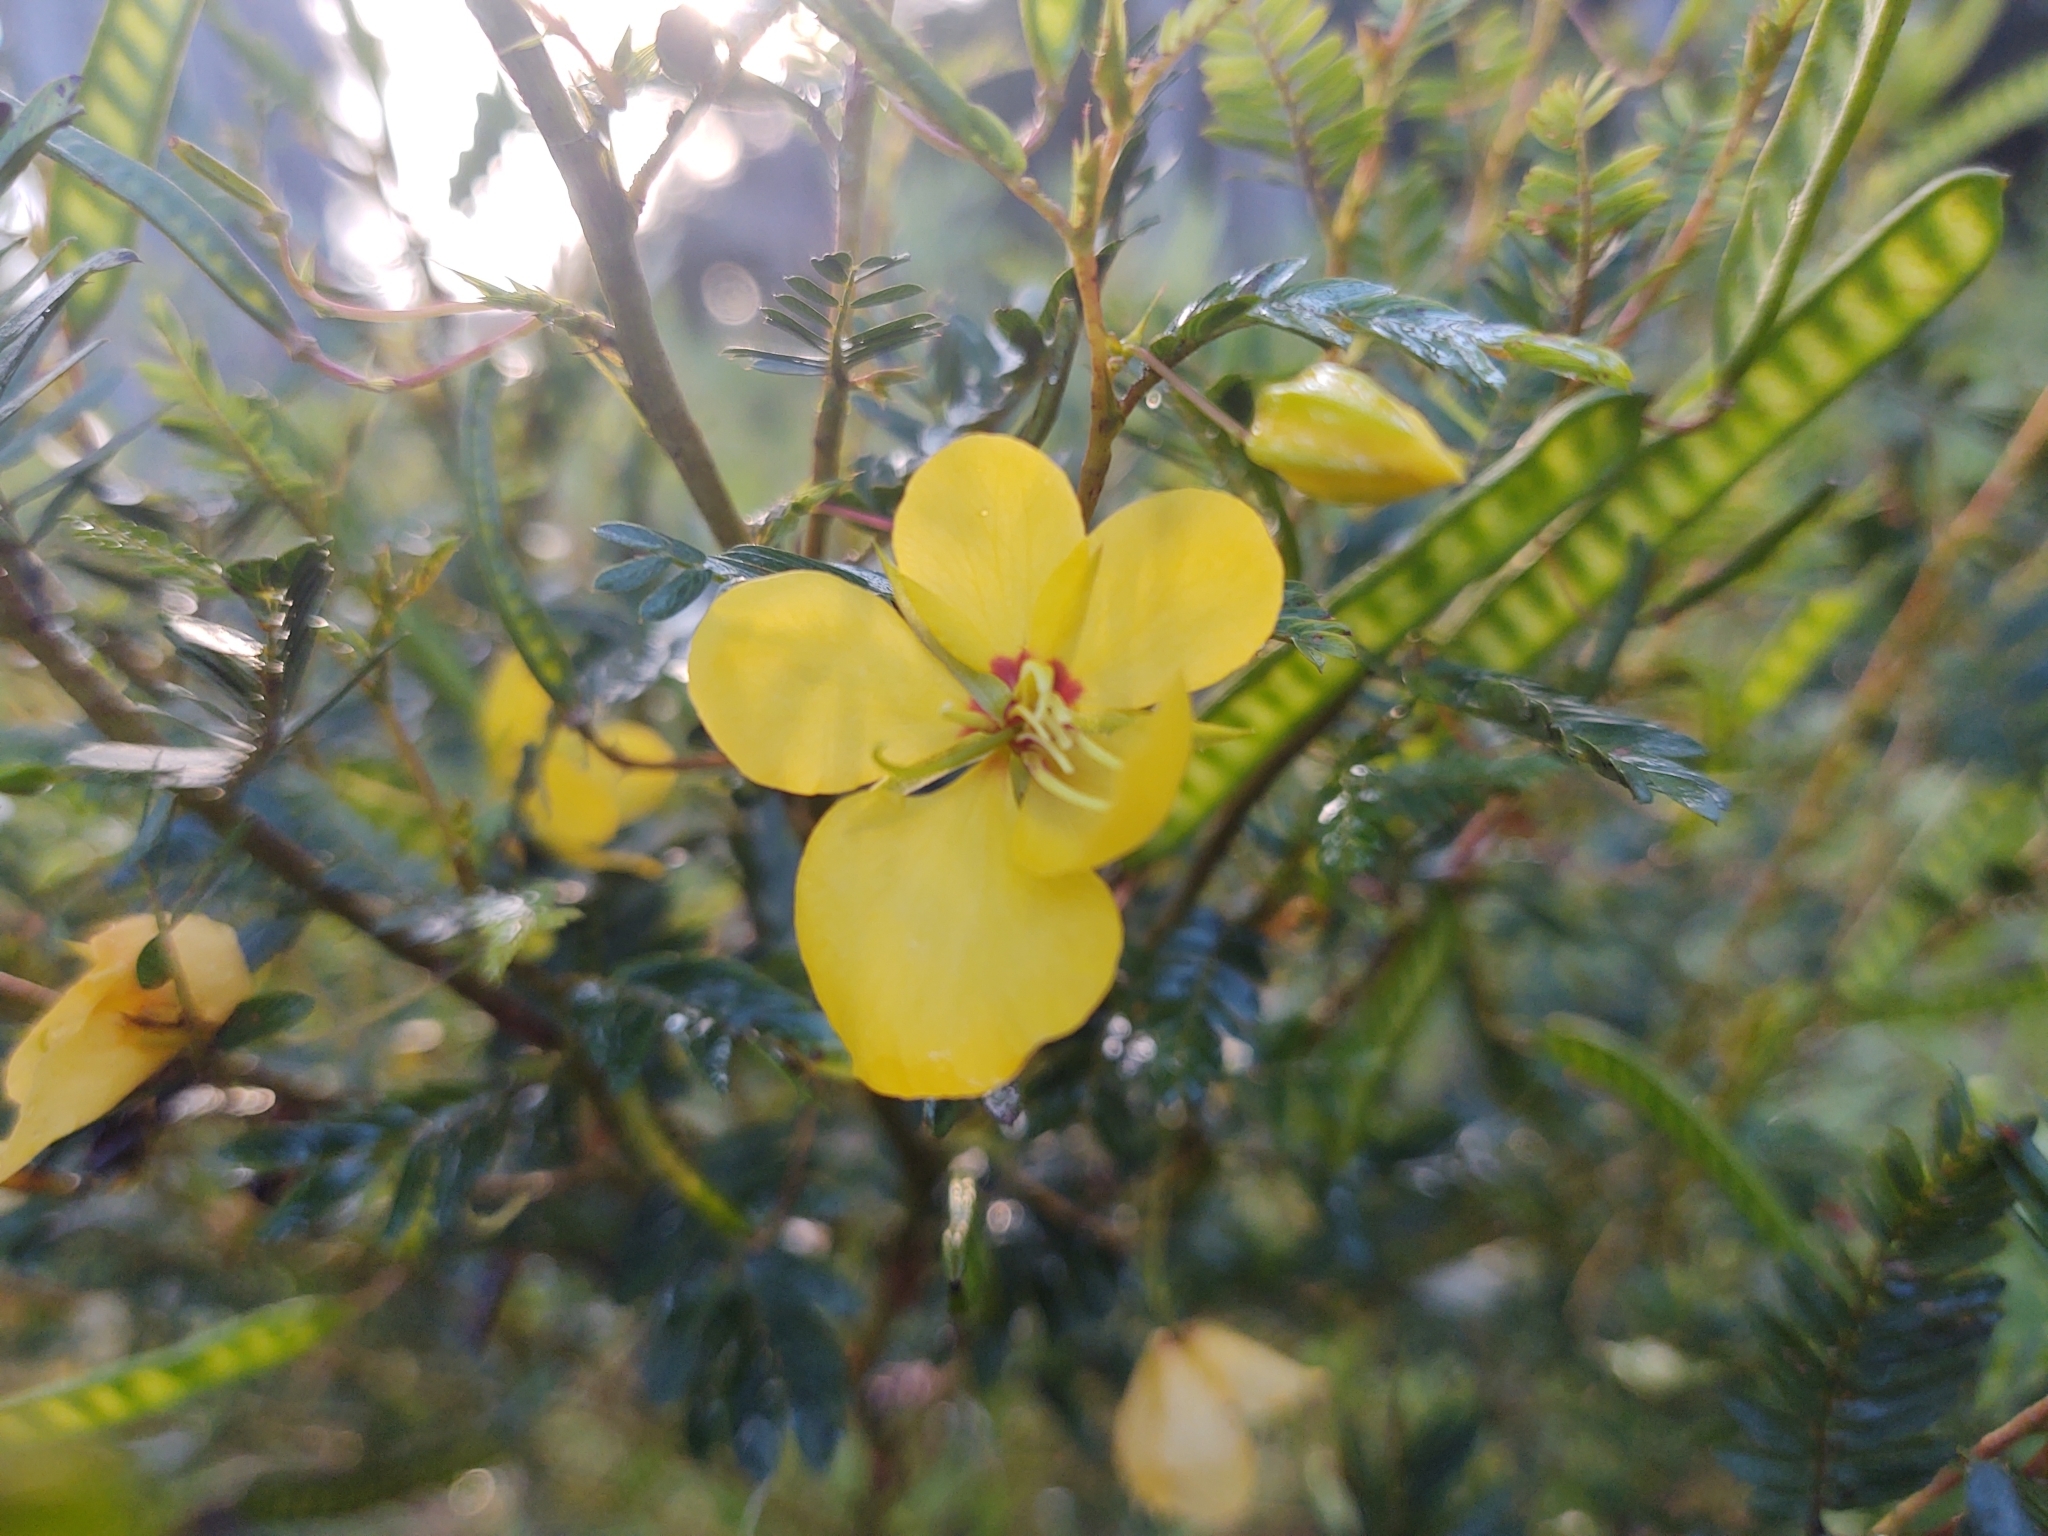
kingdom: Plantae
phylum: Tracheophyta
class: Magnoliopsida
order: Fabales
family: Fabaceae
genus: Chamaecrista
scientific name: Chamaecrista fasciculata
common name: Golden cassia
